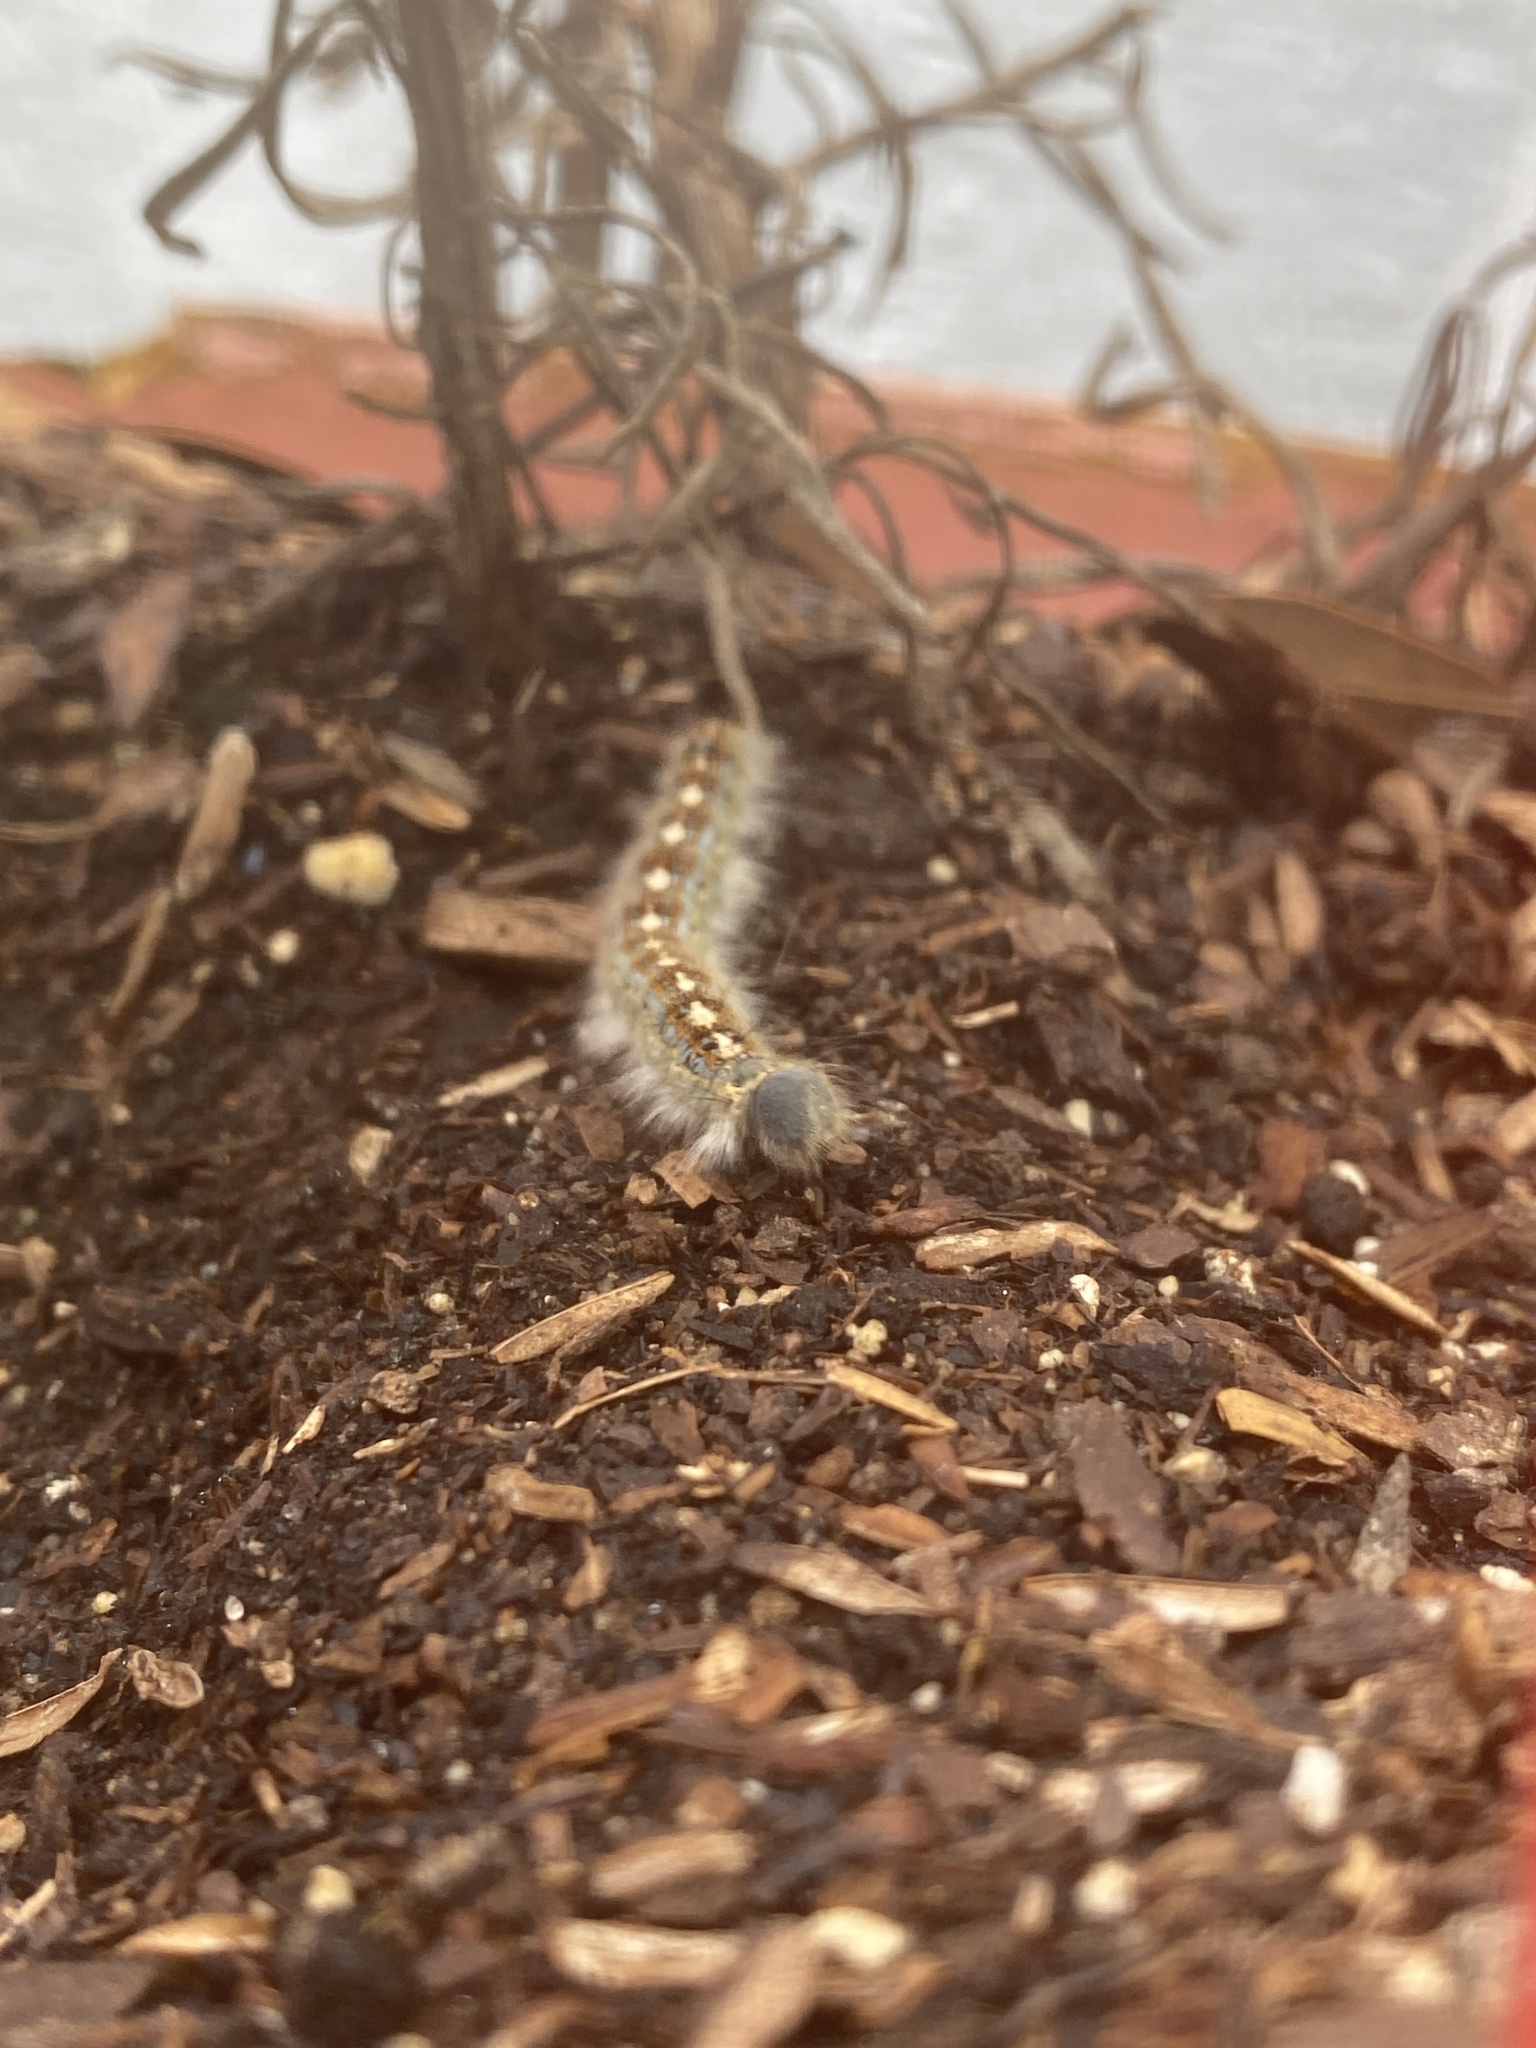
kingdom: Animalia
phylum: Arthropoda
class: Insecta
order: Lepidoptera
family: Lasiocampidae
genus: Malacosoma
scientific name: Malacosoma disstria
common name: Forest tent caterpillar
